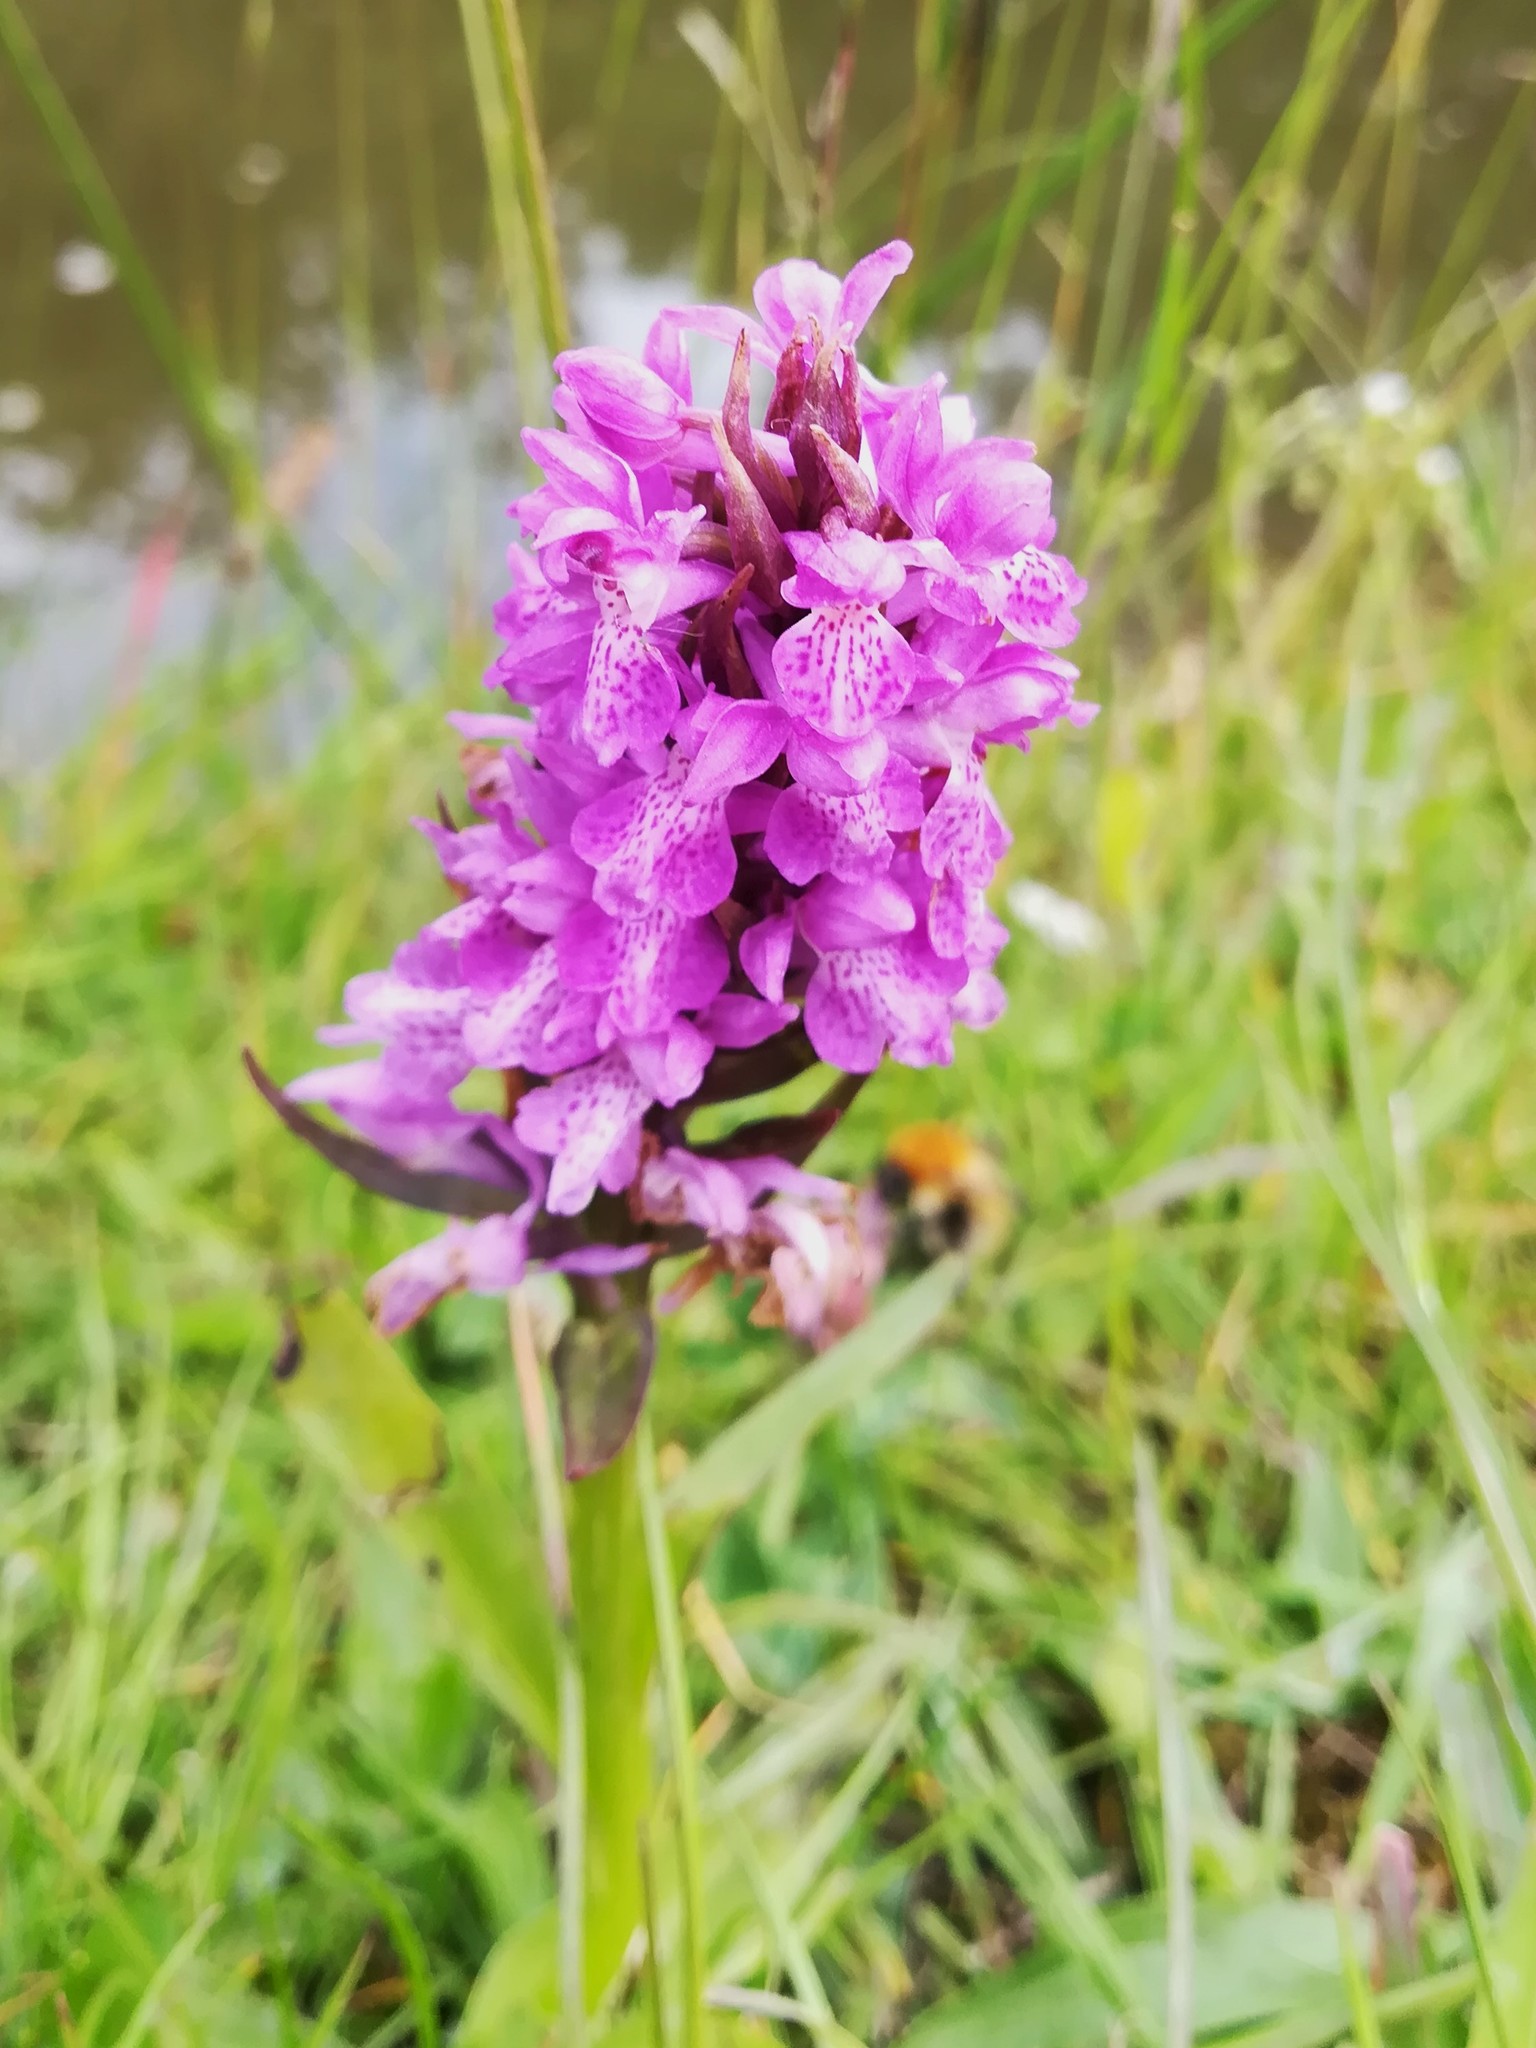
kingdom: Plantae
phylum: Tracheophyta
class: Liliopsida
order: Asparagales
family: Orchidaceae
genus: Dactylorhiza
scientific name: Dactylorhiza majalis
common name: Marsh orchid
